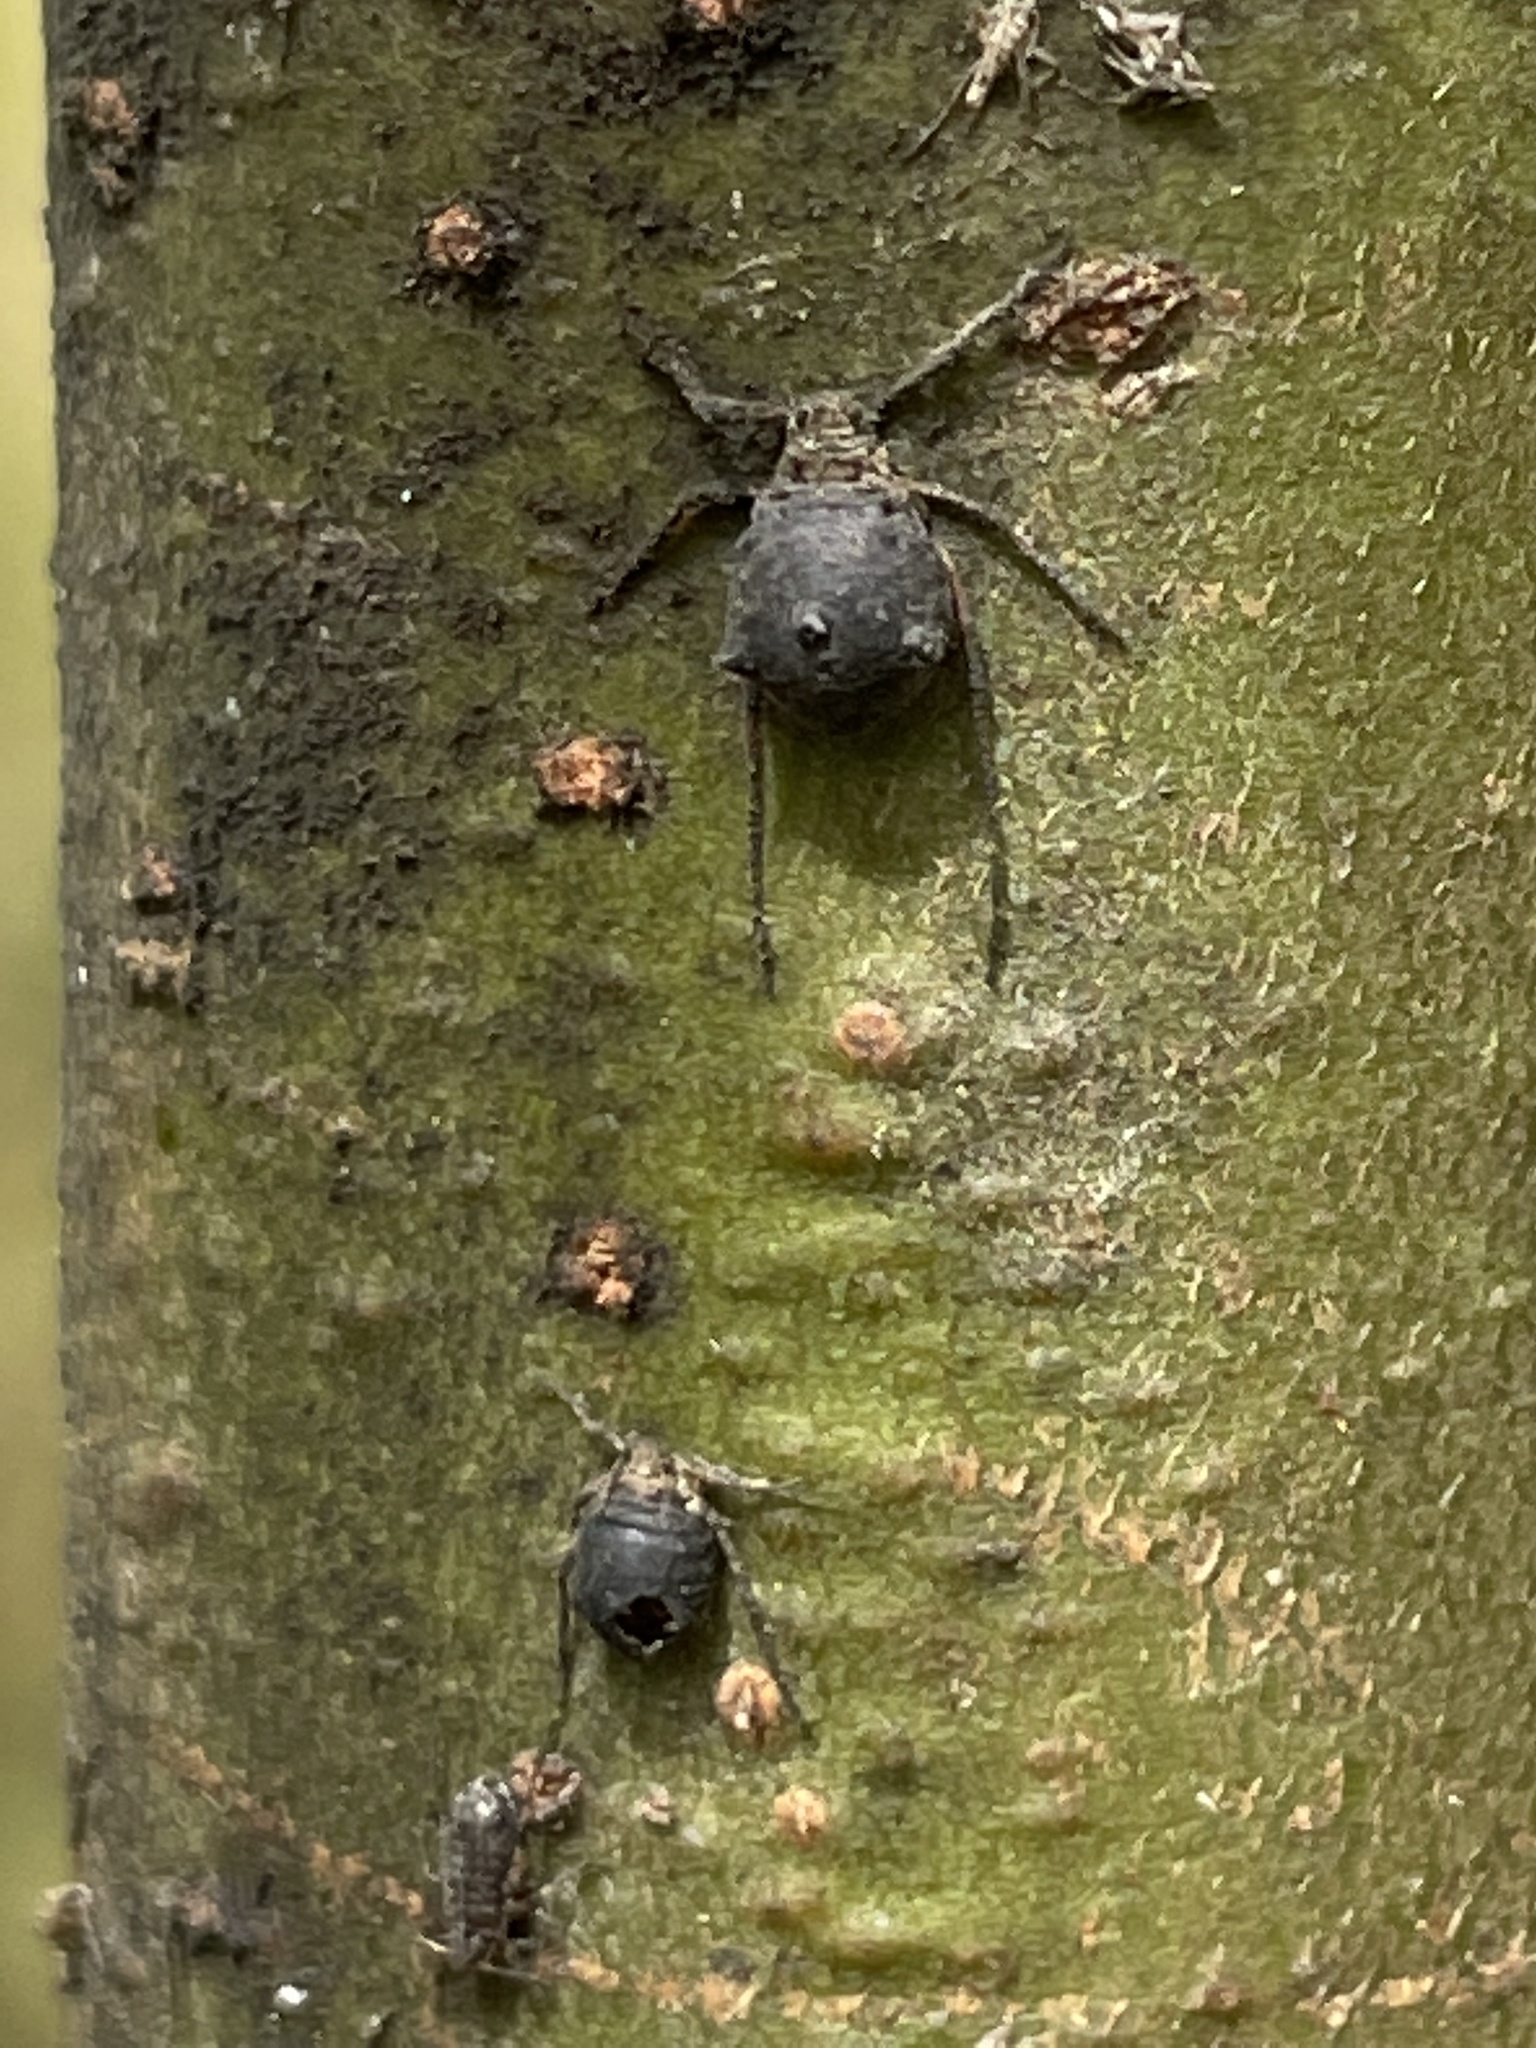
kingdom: Animalia
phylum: Arthropoda
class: Insecta
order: Hymenoptera
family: Braconidae
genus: Pauesia
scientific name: Pauesia nigrovaria
